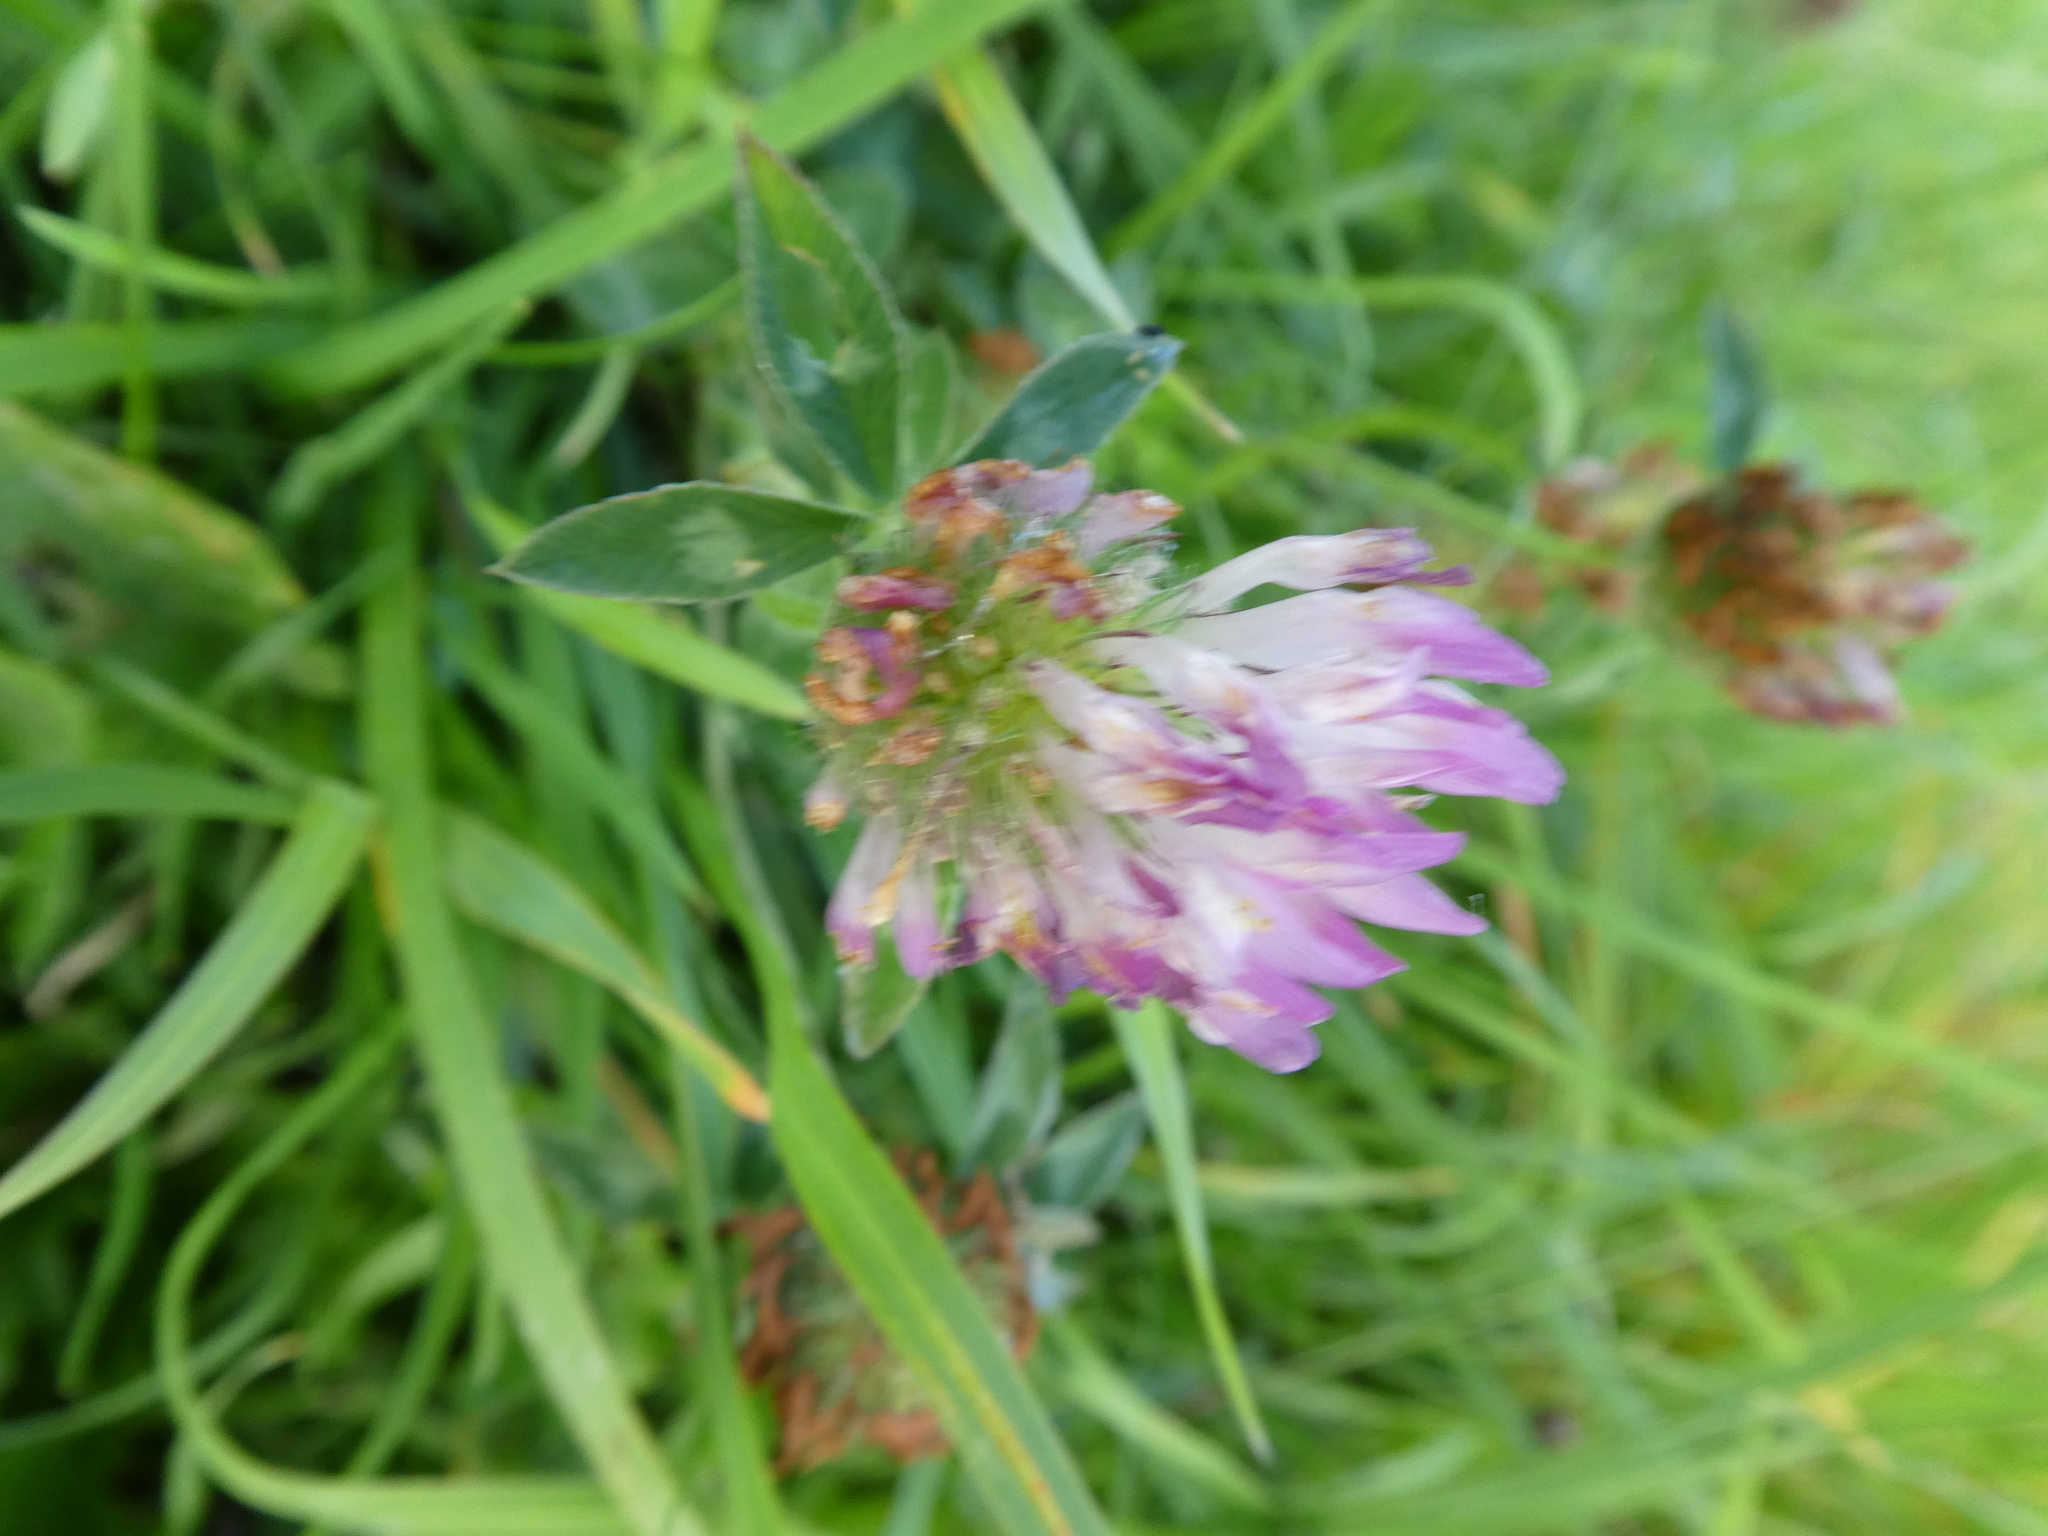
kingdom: Plantae
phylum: Tracheophyta
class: Magnoliopsida
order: Fabales
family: Fabaceae
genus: Trifolium
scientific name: Trifolium pratense
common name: Red clover
